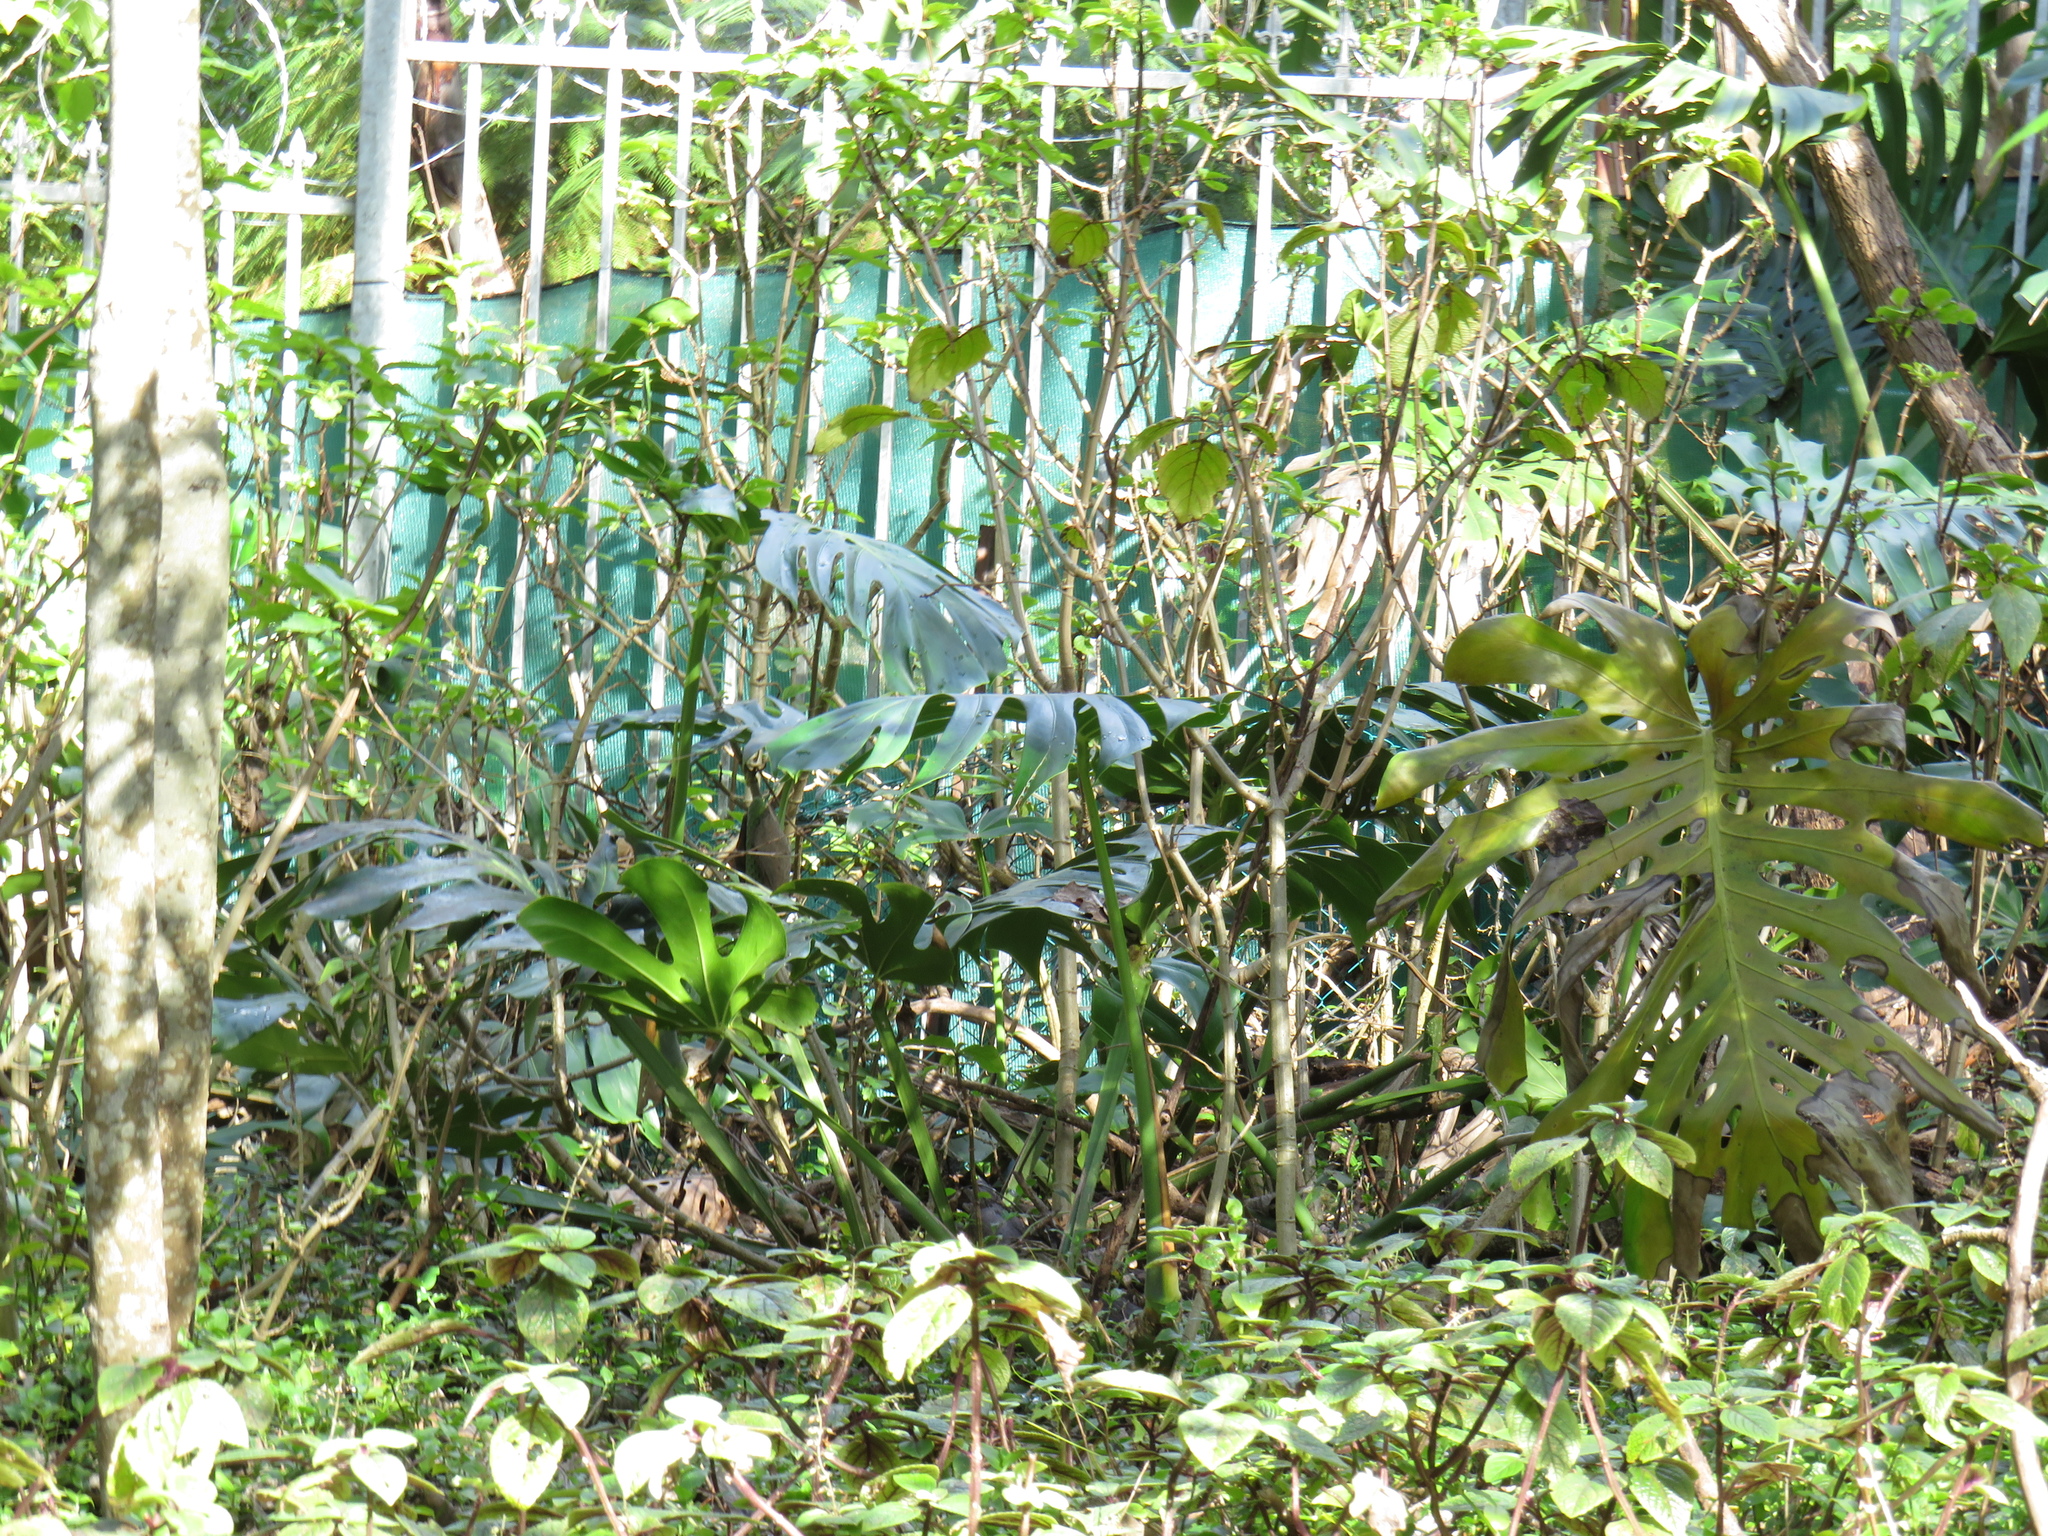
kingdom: Plantae
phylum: Tracheophyta
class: Liliopsida
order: Alismatales
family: Araceae
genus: Monstera
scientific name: Monstera deliciosa
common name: Cut-leaf-philodendron
